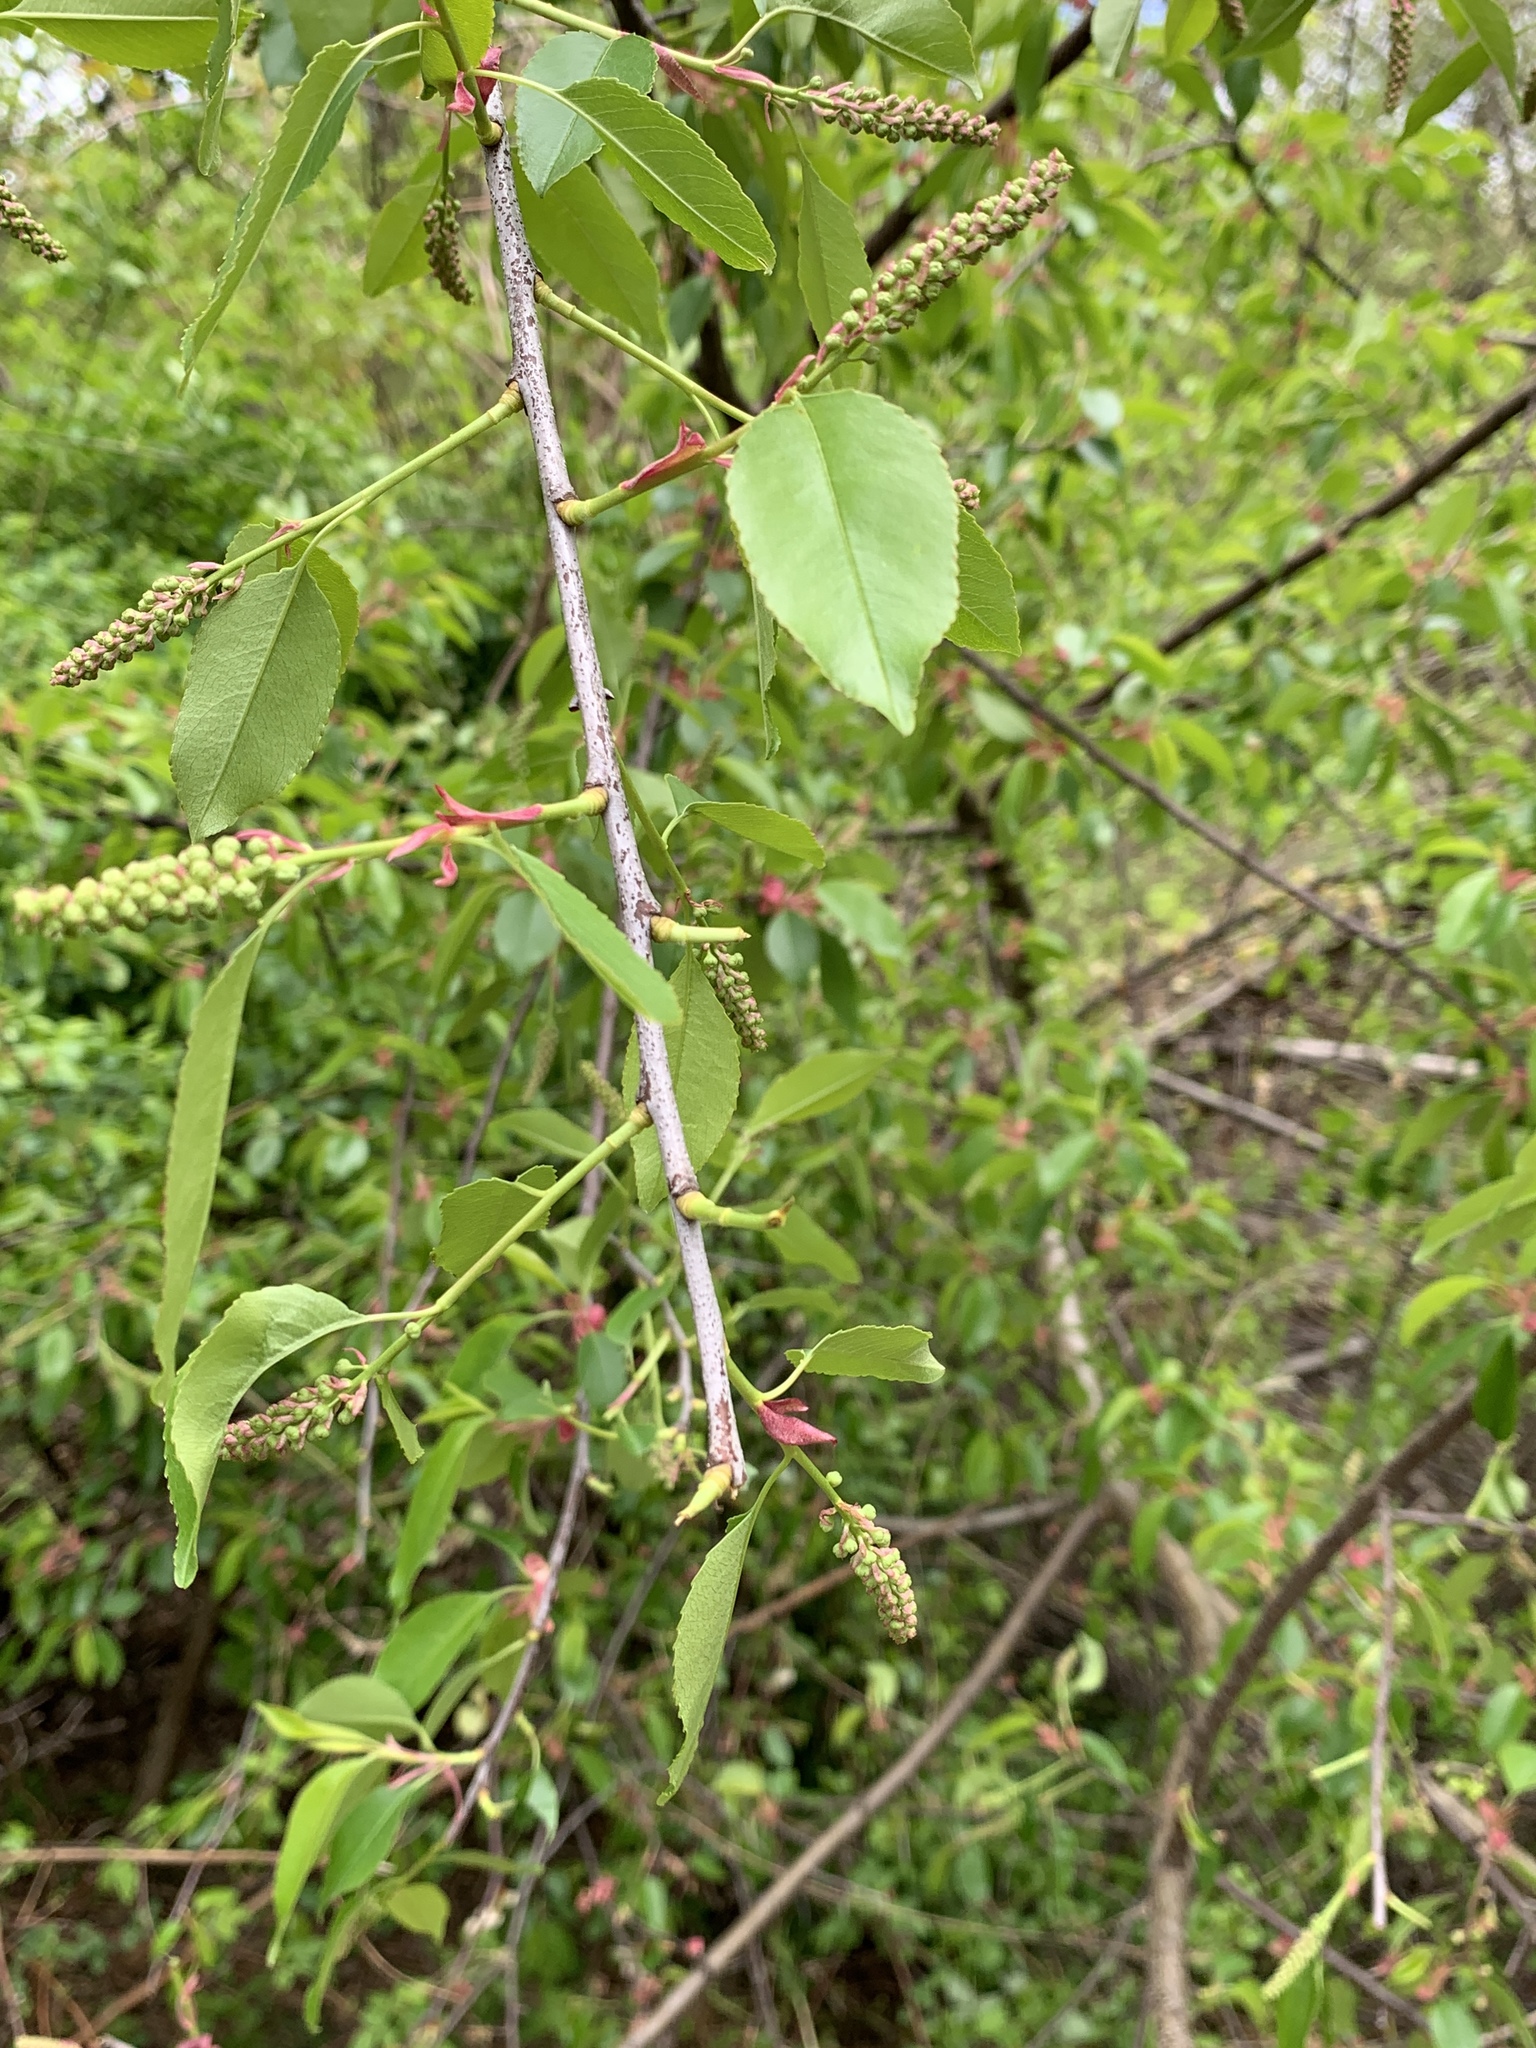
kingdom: Plantae
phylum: Tracheophyta
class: Magnoliopsida
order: Rosales
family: Rosaceae
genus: Prunus
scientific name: Prunus serotina
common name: Black cherry
